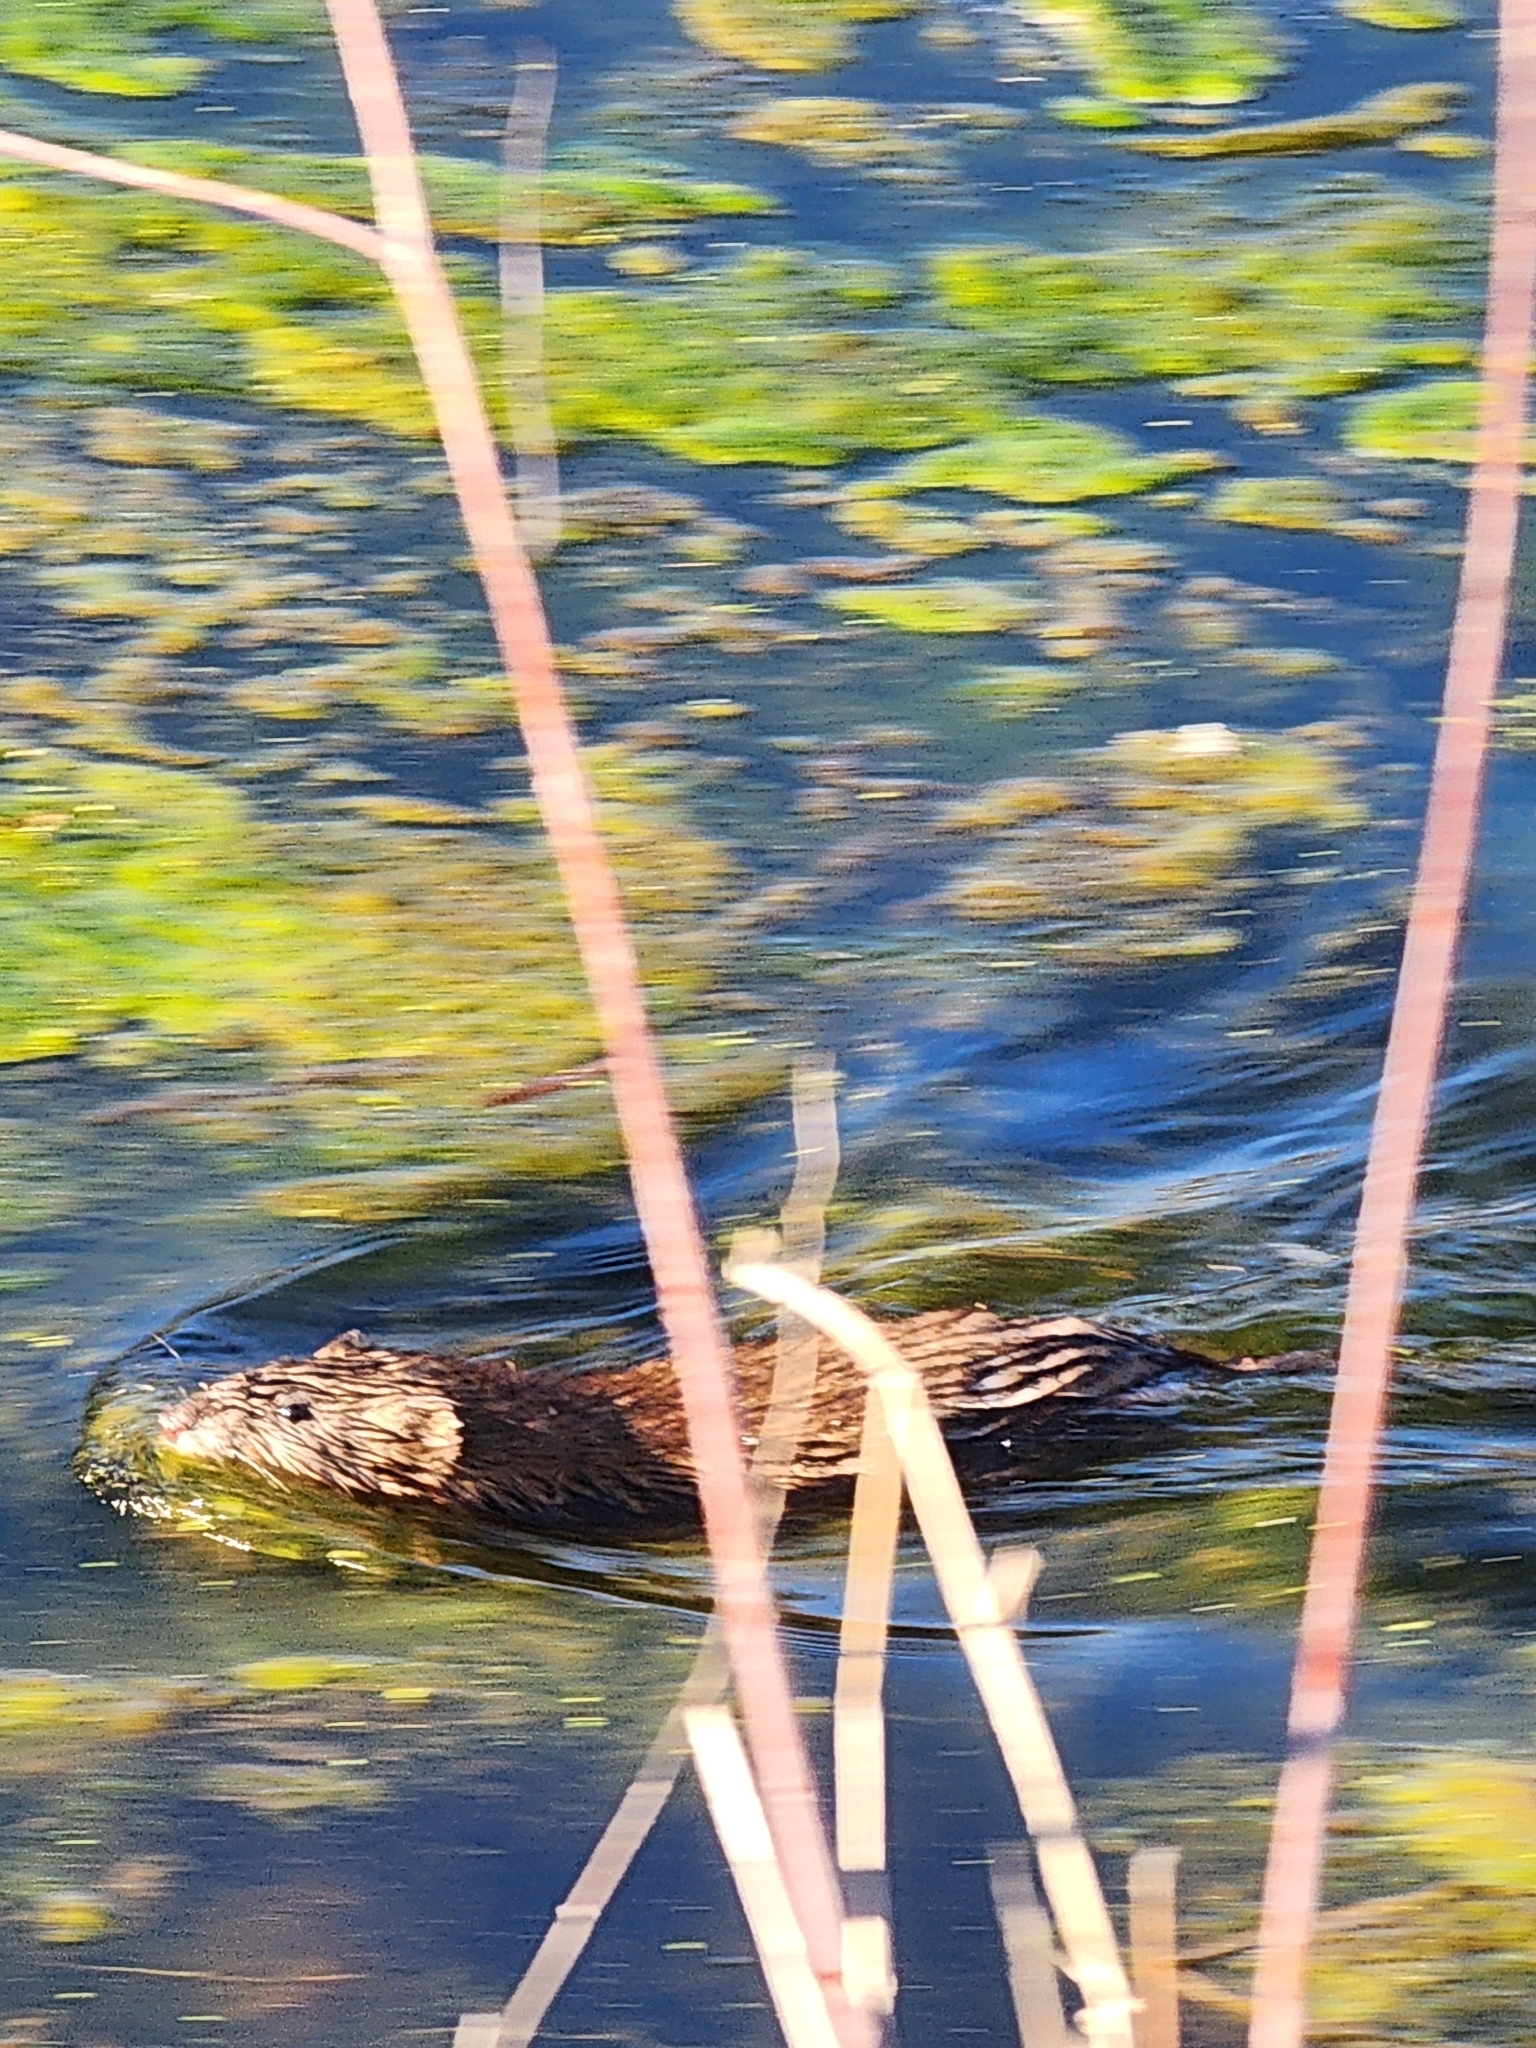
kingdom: Animalia
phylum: Chordata
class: Mammalia
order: Rodentia
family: Cricetidae
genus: Ondatra
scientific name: Ondatra zibethicus
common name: Muskrat
